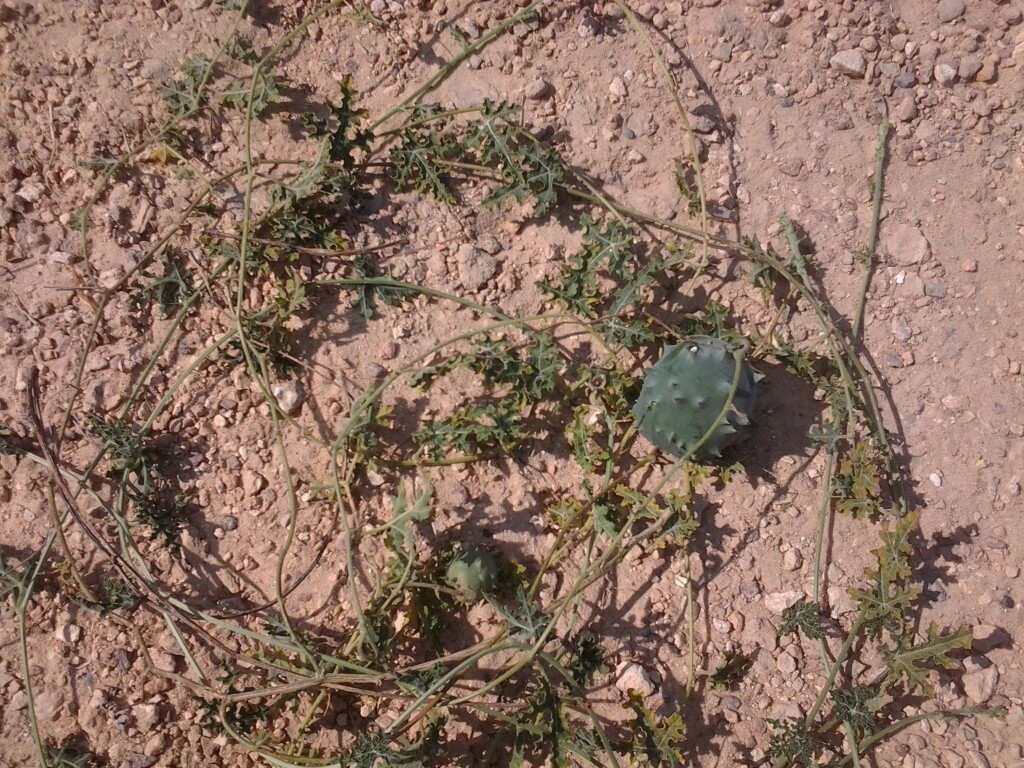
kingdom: Plantae
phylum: Tracheophyta
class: Magnoliopsida
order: Cucurbitales
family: Cucurbitaceae
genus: Citrullus
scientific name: Citrullus naudinianus
